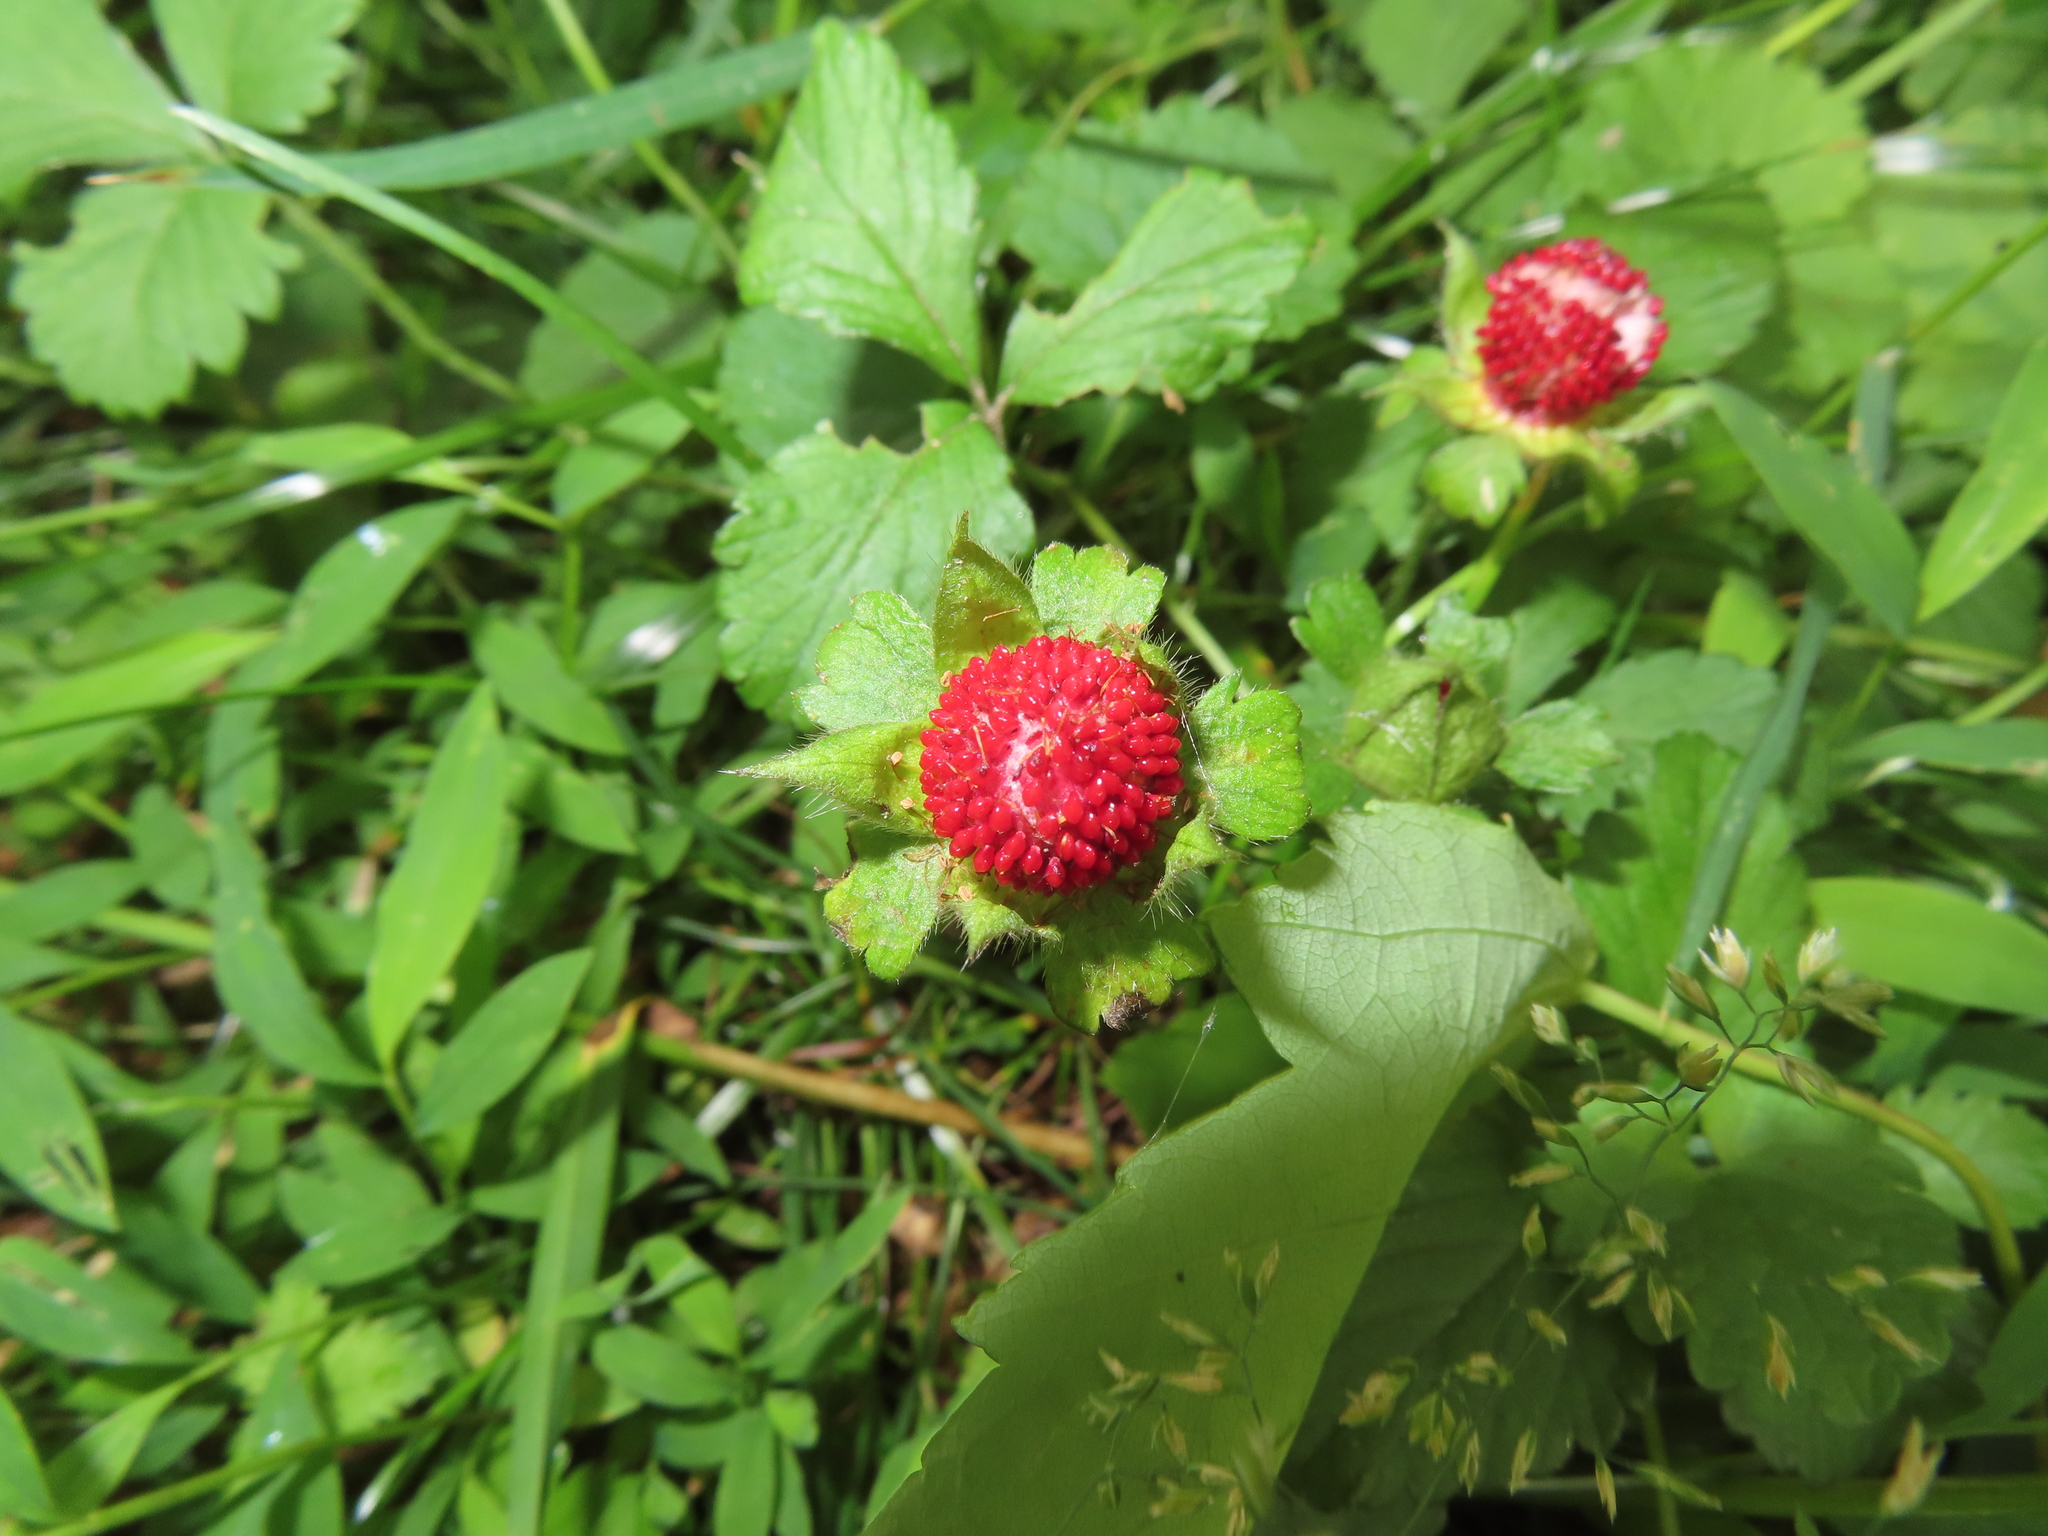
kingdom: Plantae
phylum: Tracheophyta
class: Magnoliopsida
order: Rosales
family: Rosaceae
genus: Potentilla
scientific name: Potentilla indica
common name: Yellow-flowered strawberry
